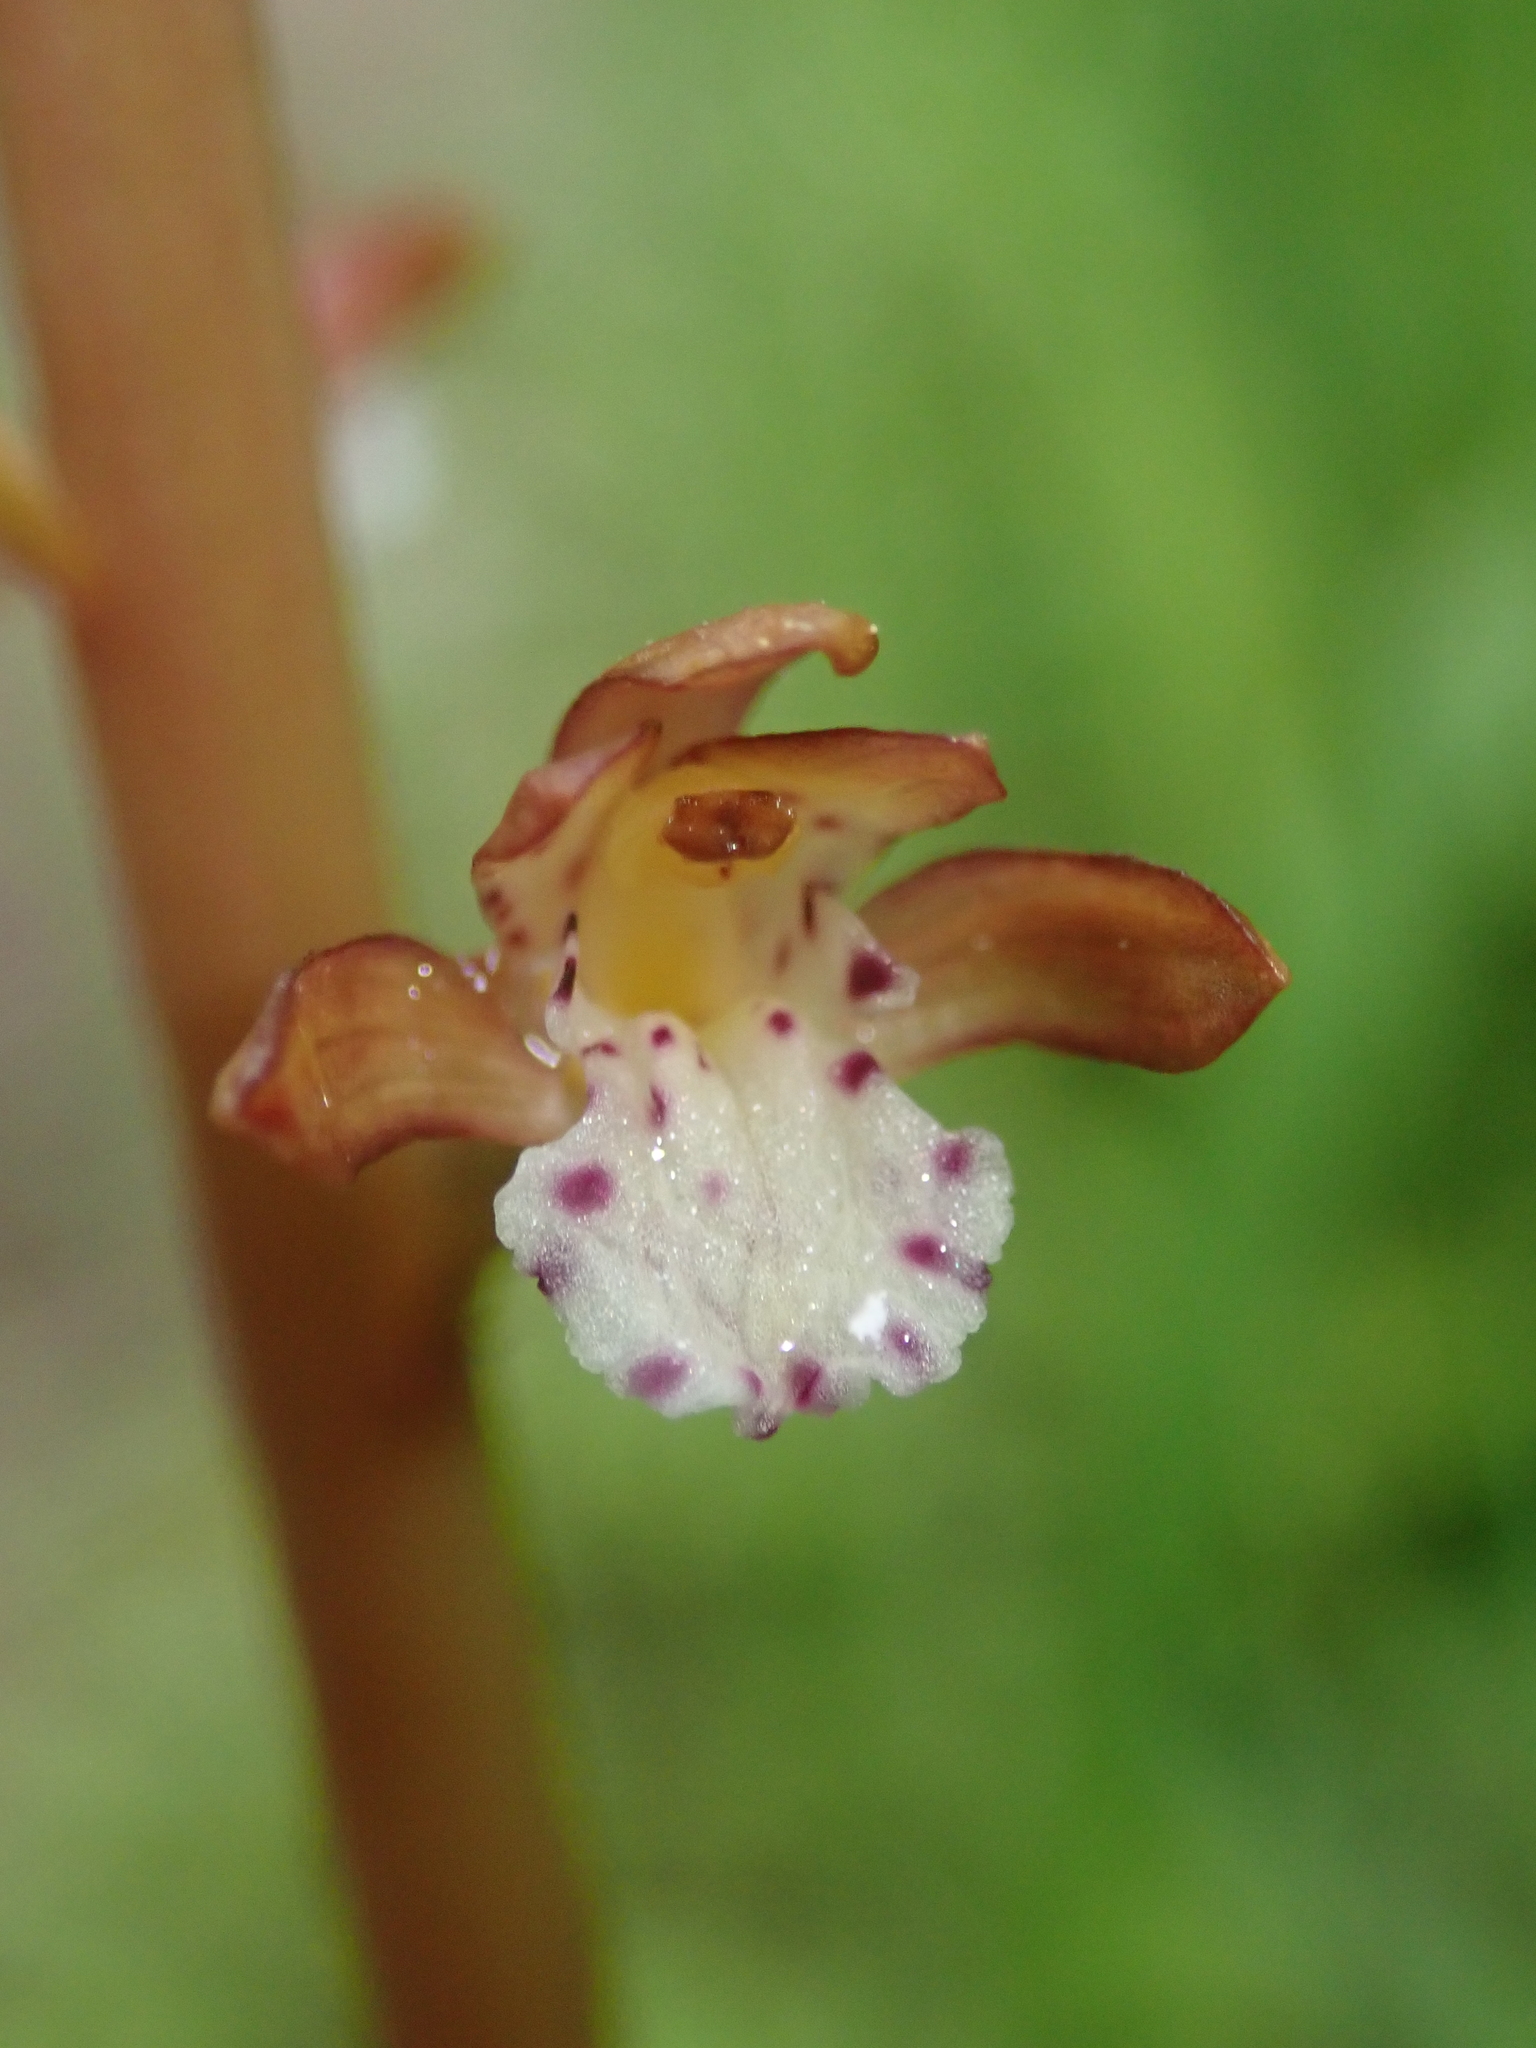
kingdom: Plantae
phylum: Tracheophyta
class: Liliopsida
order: Asparagales
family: Orchidaceae
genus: Corallorhiza
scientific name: Corallorhiza maculata
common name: Spotted coralroot
